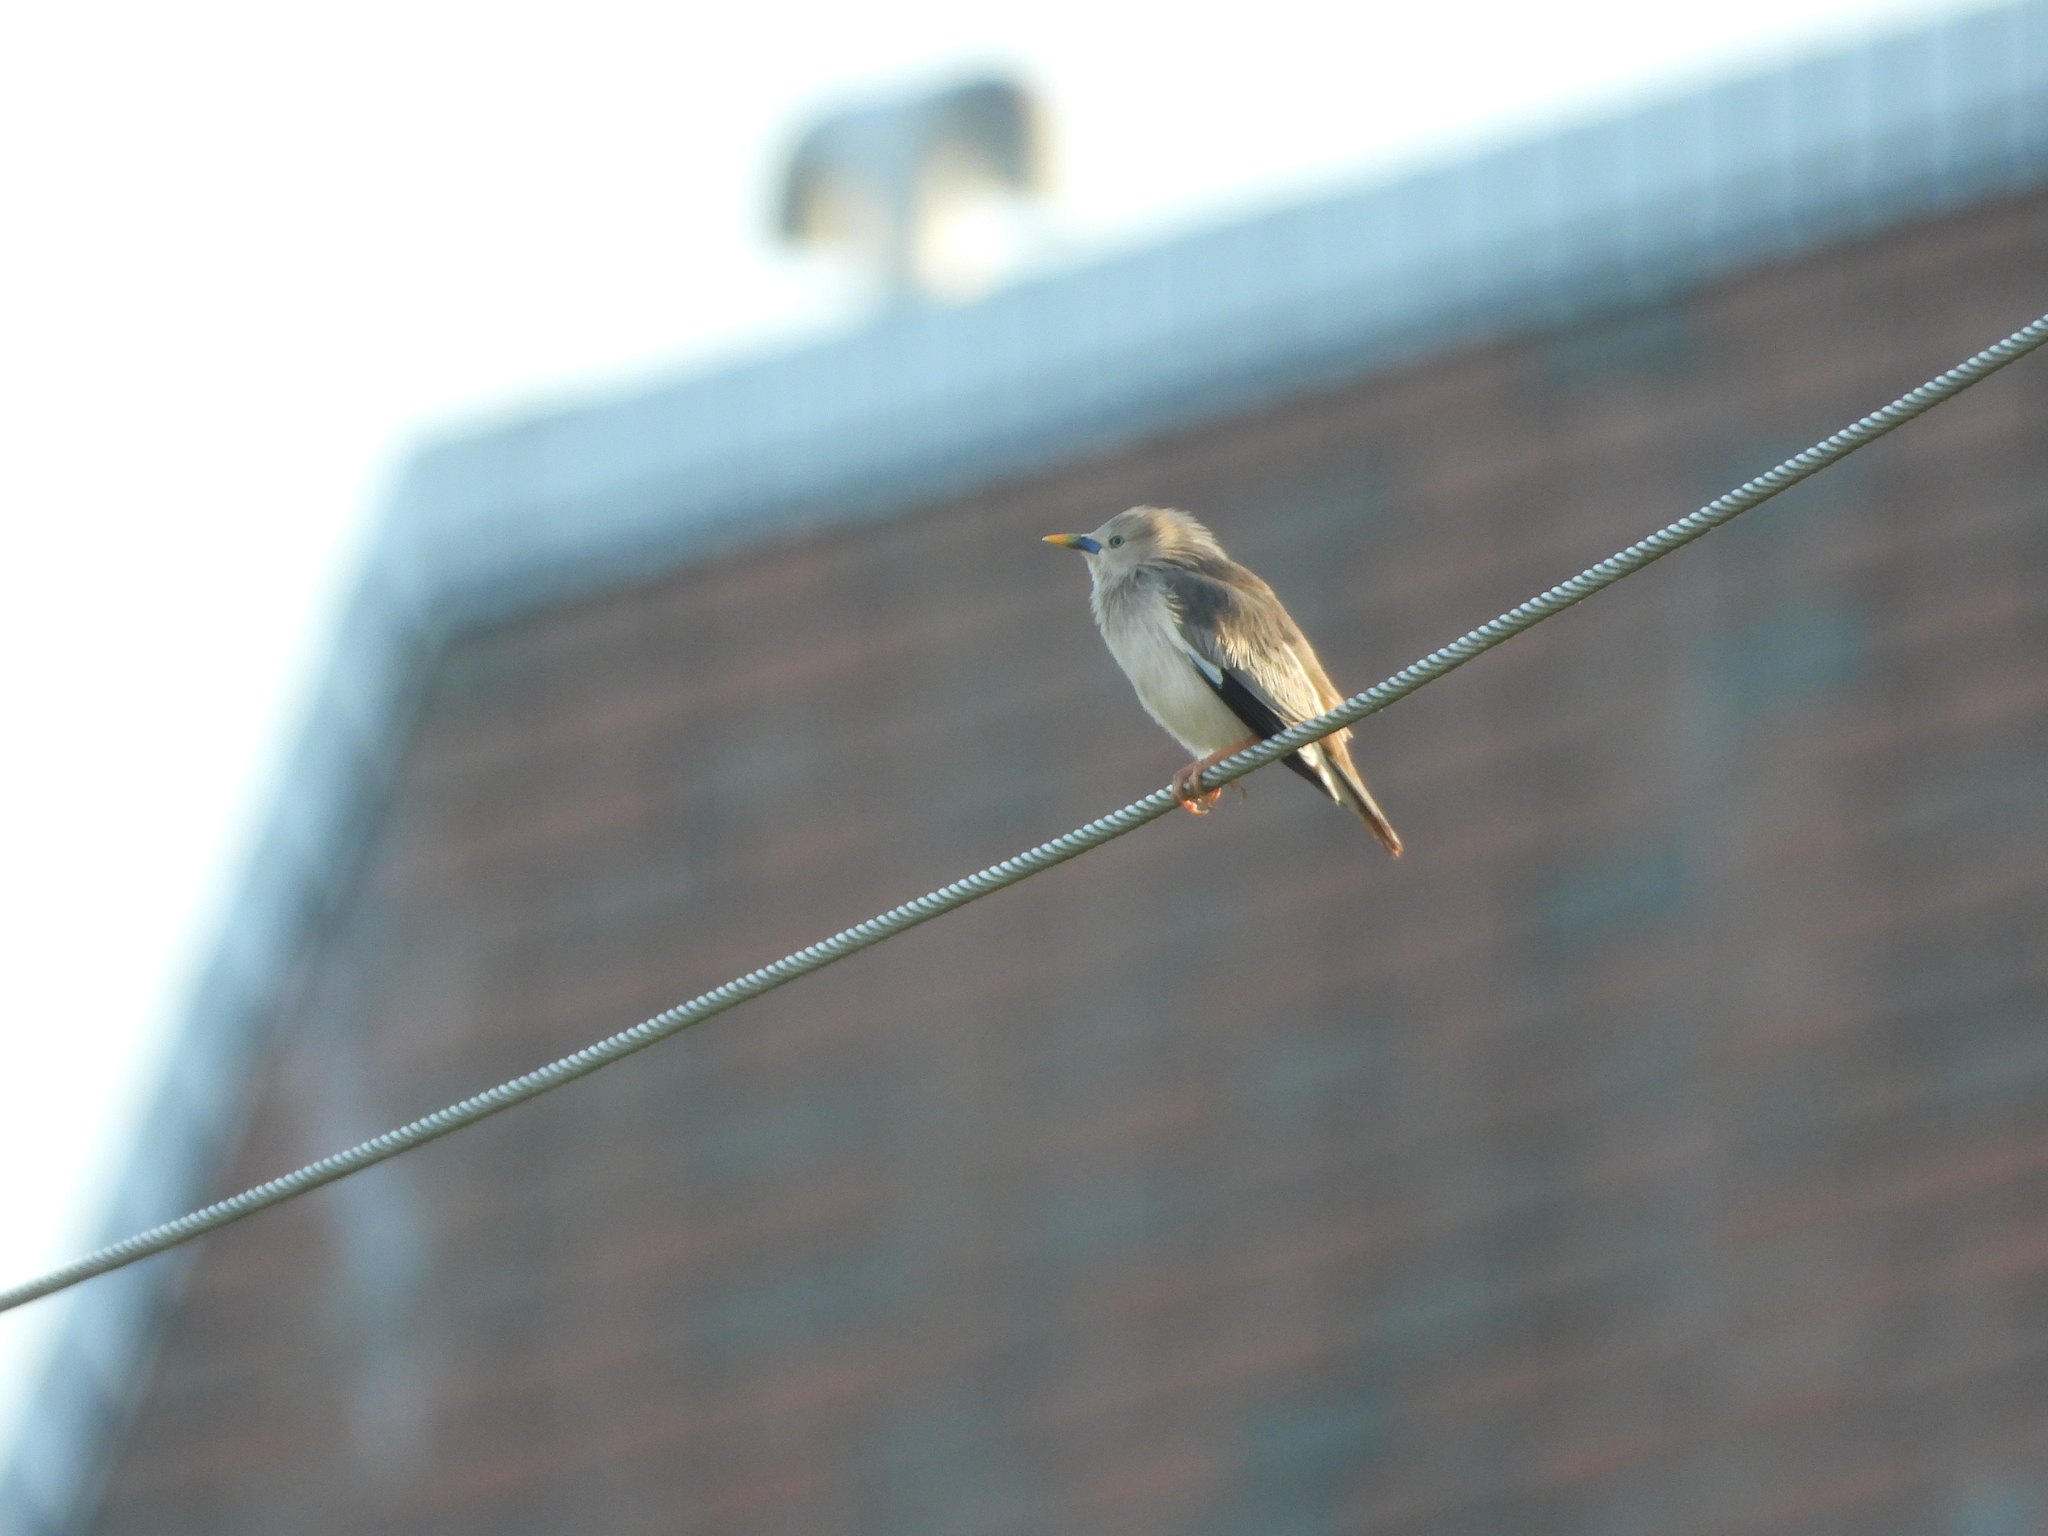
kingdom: Animalia
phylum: Chordata
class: Aves
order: Passeriformes
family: Sturnidae
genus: Sturnia
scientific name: Sturnia malabarica
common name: Chestnut-tailed starling
